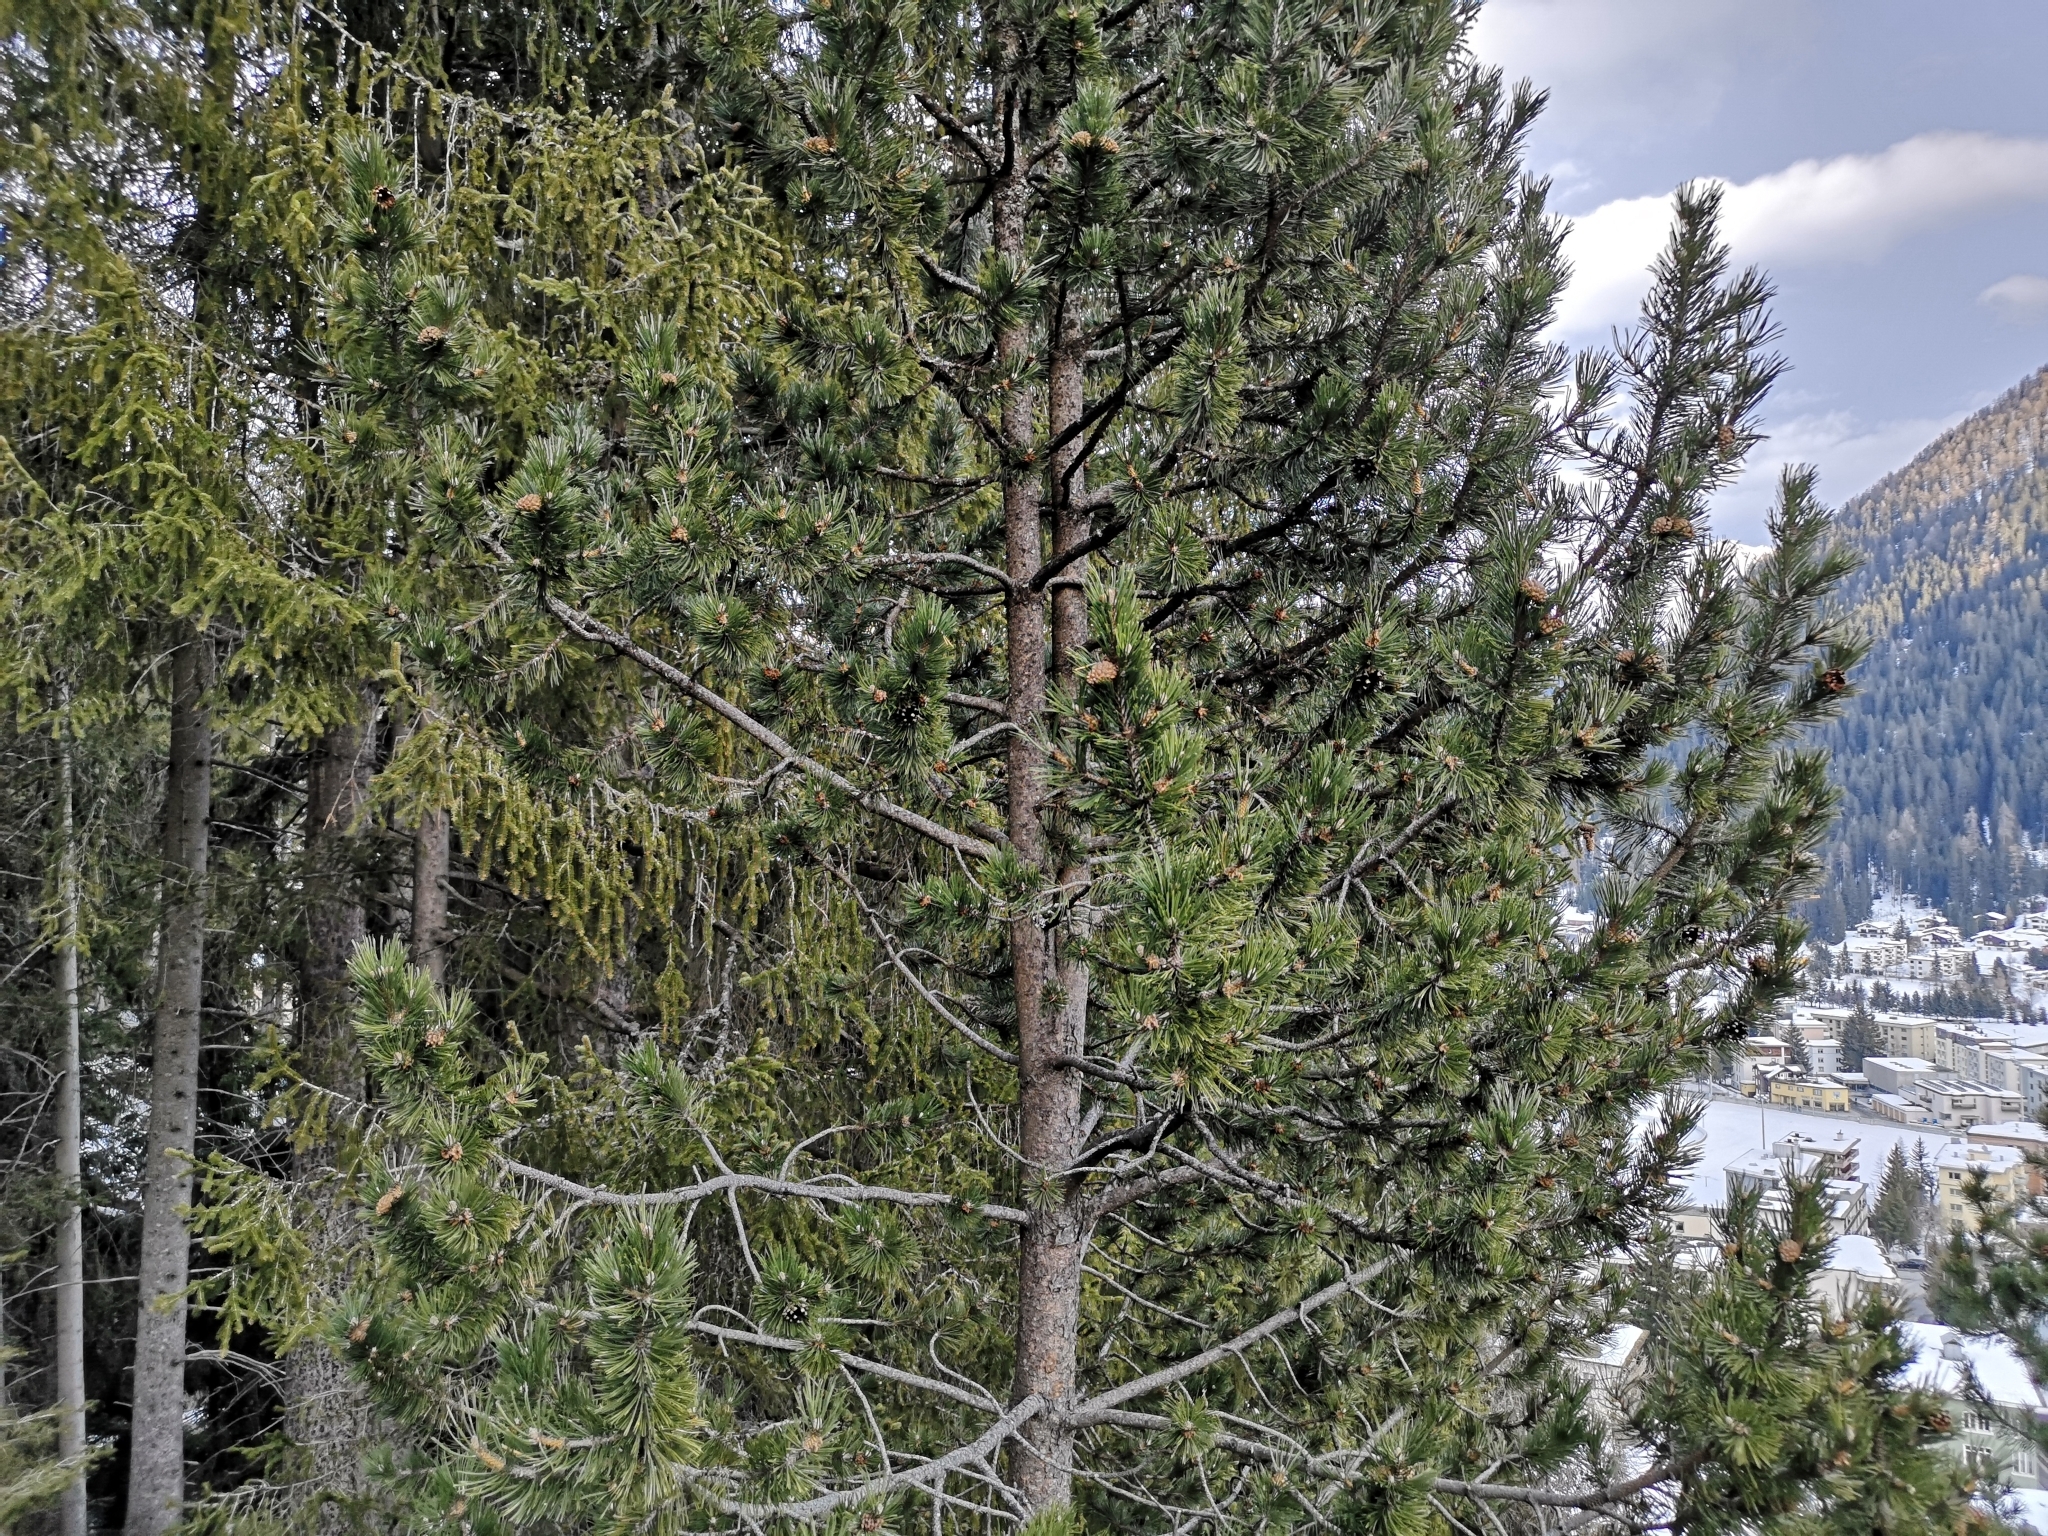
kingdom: Plantae
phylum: Tracheophyta
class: Pinopsida
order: Pinales
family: Pinaceae
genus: Pinus
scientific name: Pinus cembra
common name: Arolla pine
